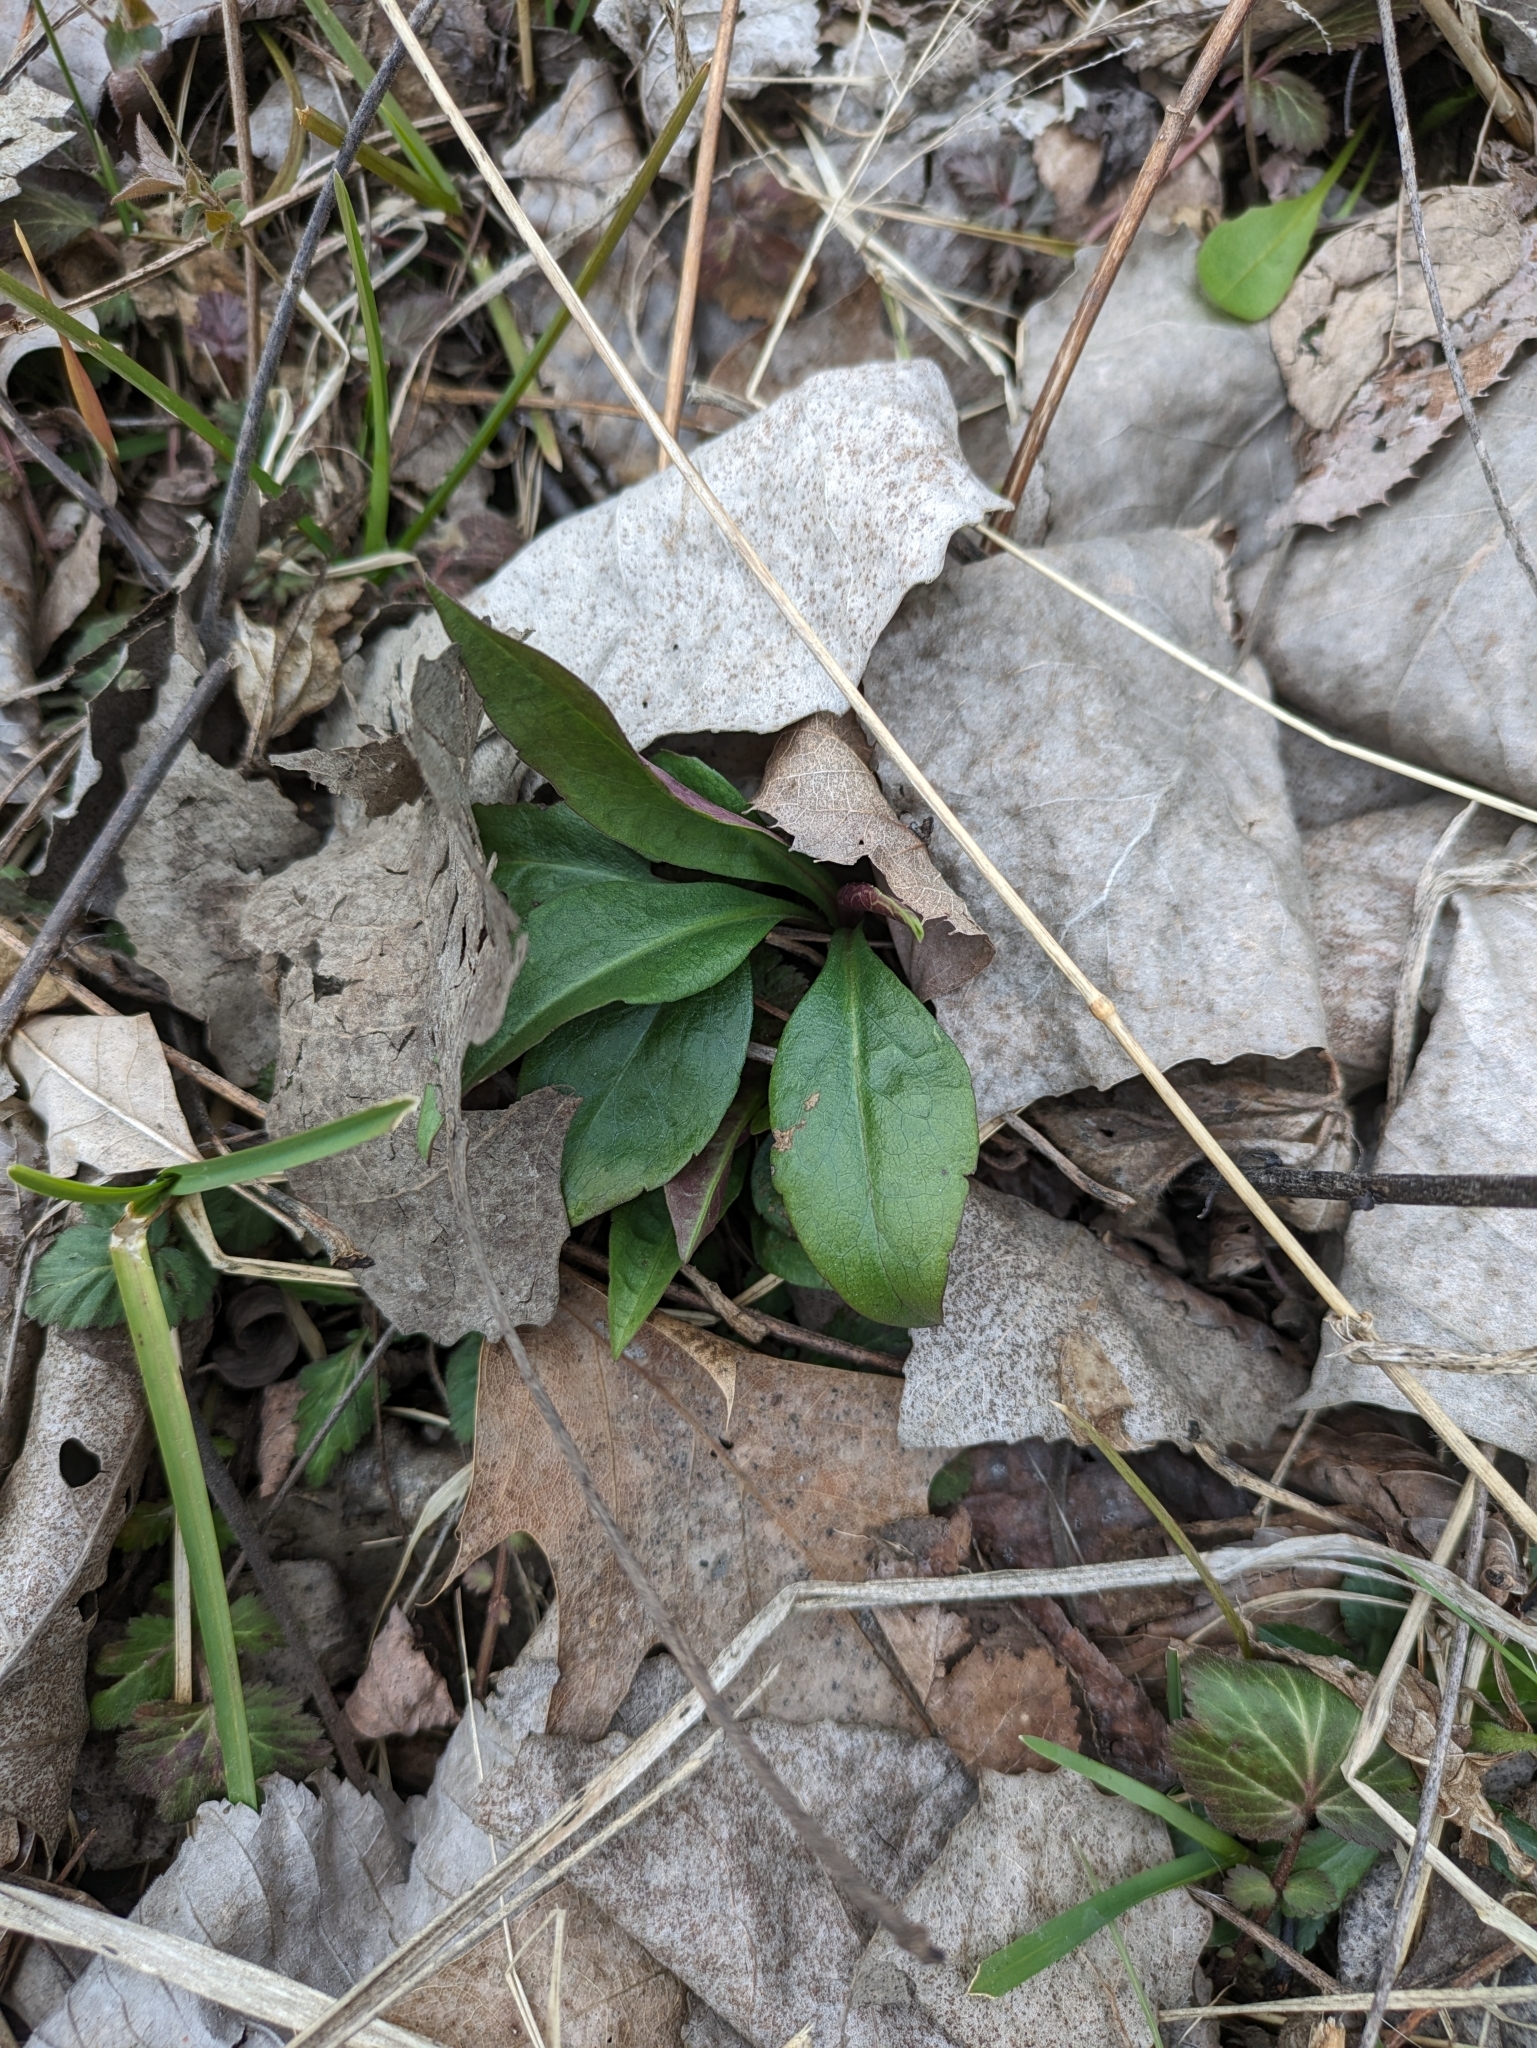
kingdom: Plantae
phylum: Tracheophyta
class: Magnoliopsida
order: Brassicales
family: Brassicaceae
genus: Hesperis
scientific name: Hesperis matronalis
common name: Dame's-violet
